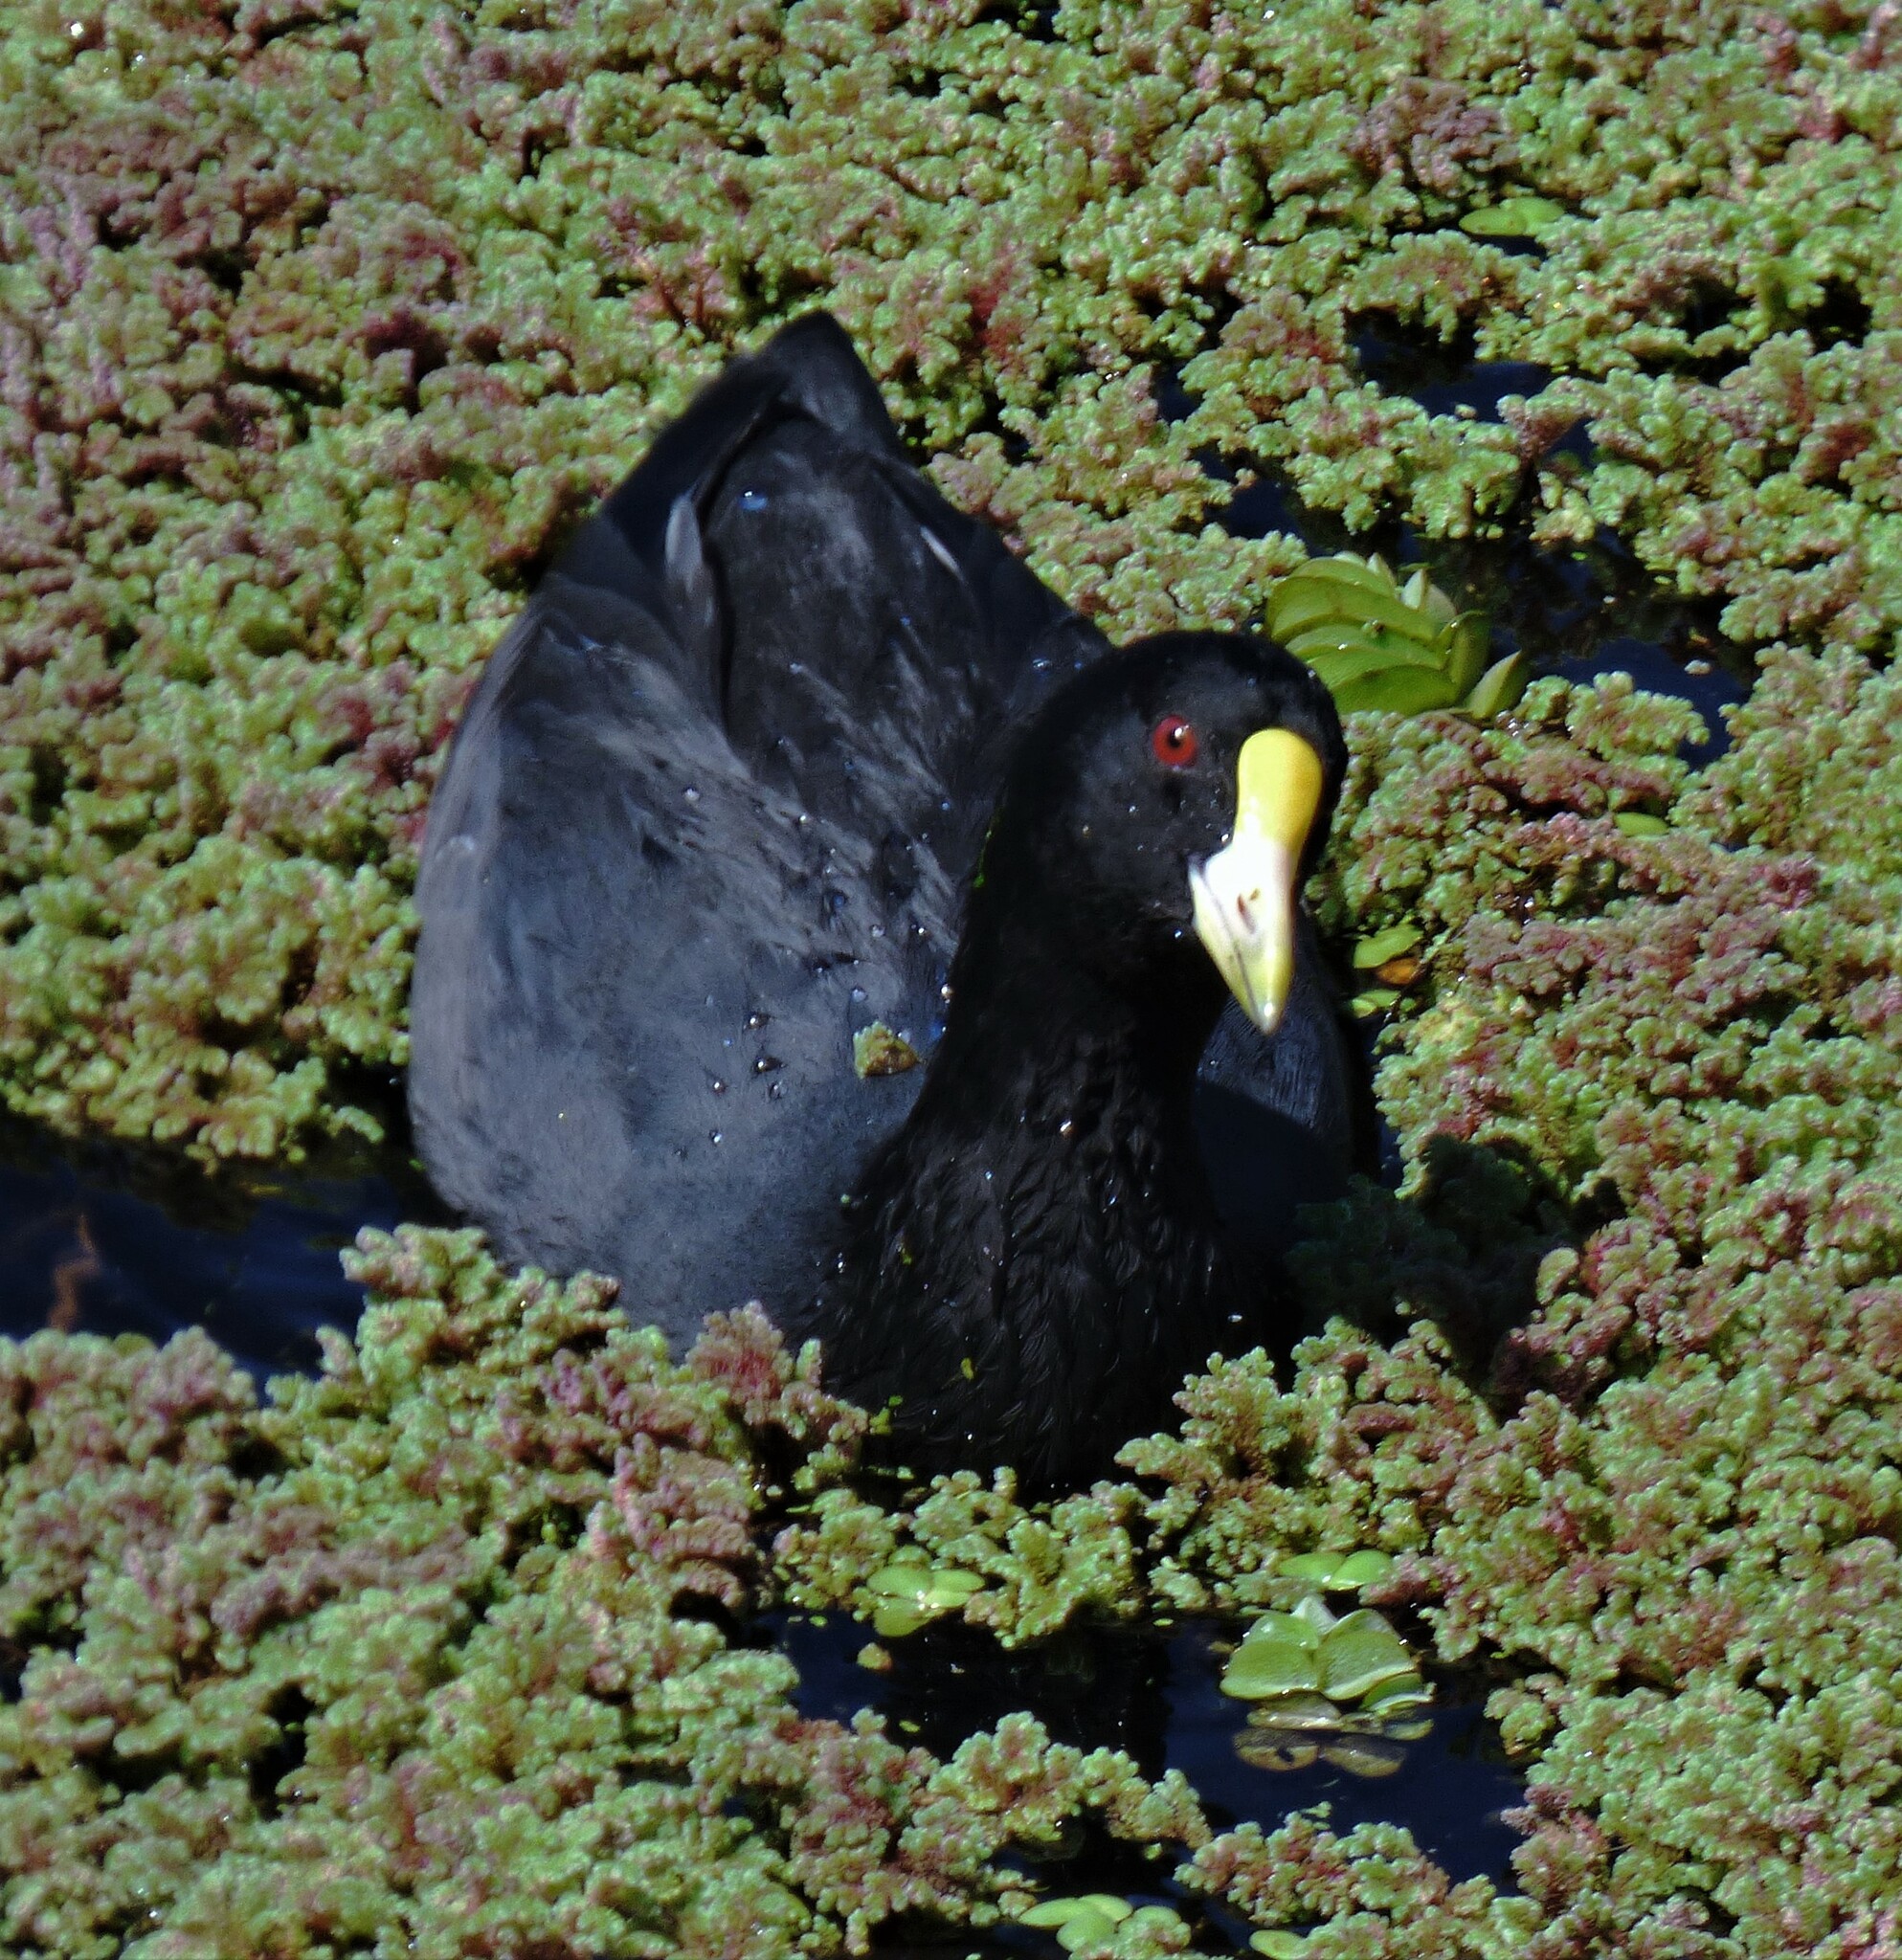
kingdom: Animalia
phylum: Chordata
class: Aves
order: Gruiformes
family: Rallidae
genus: Fulica
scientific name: Fulica leucoptera
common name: White-winged coot
